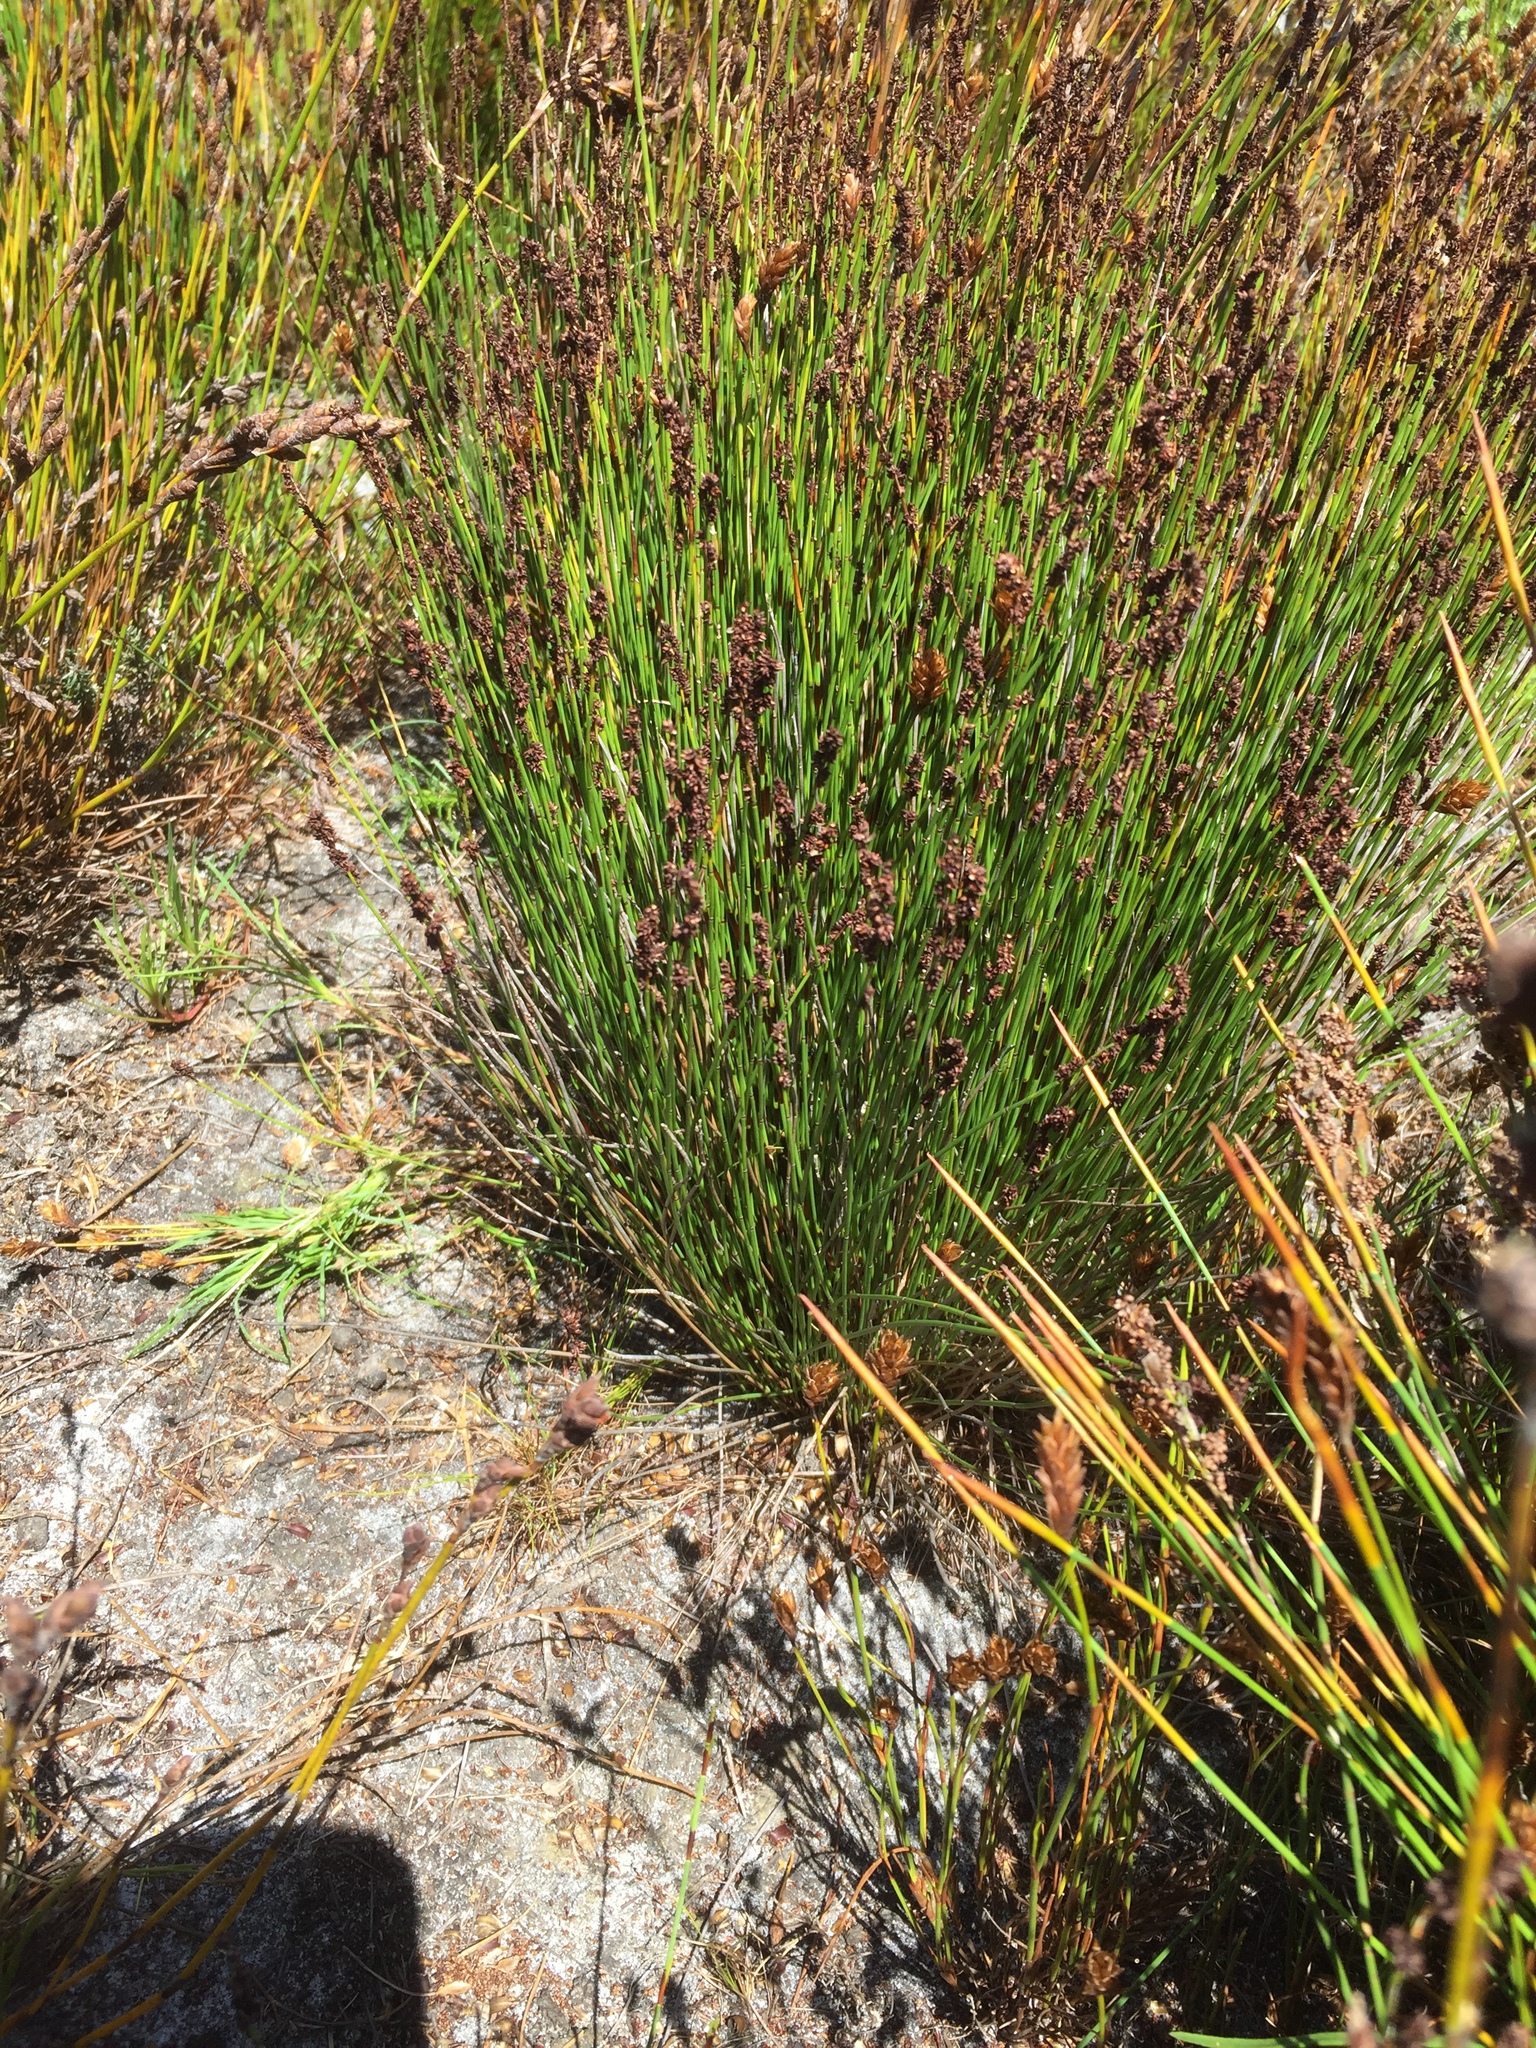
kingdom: Plantae
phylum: Tracheophyta
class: Liliopsida
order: Poales
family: Restionaceae
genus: Elegia
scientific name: Elegia nuda
